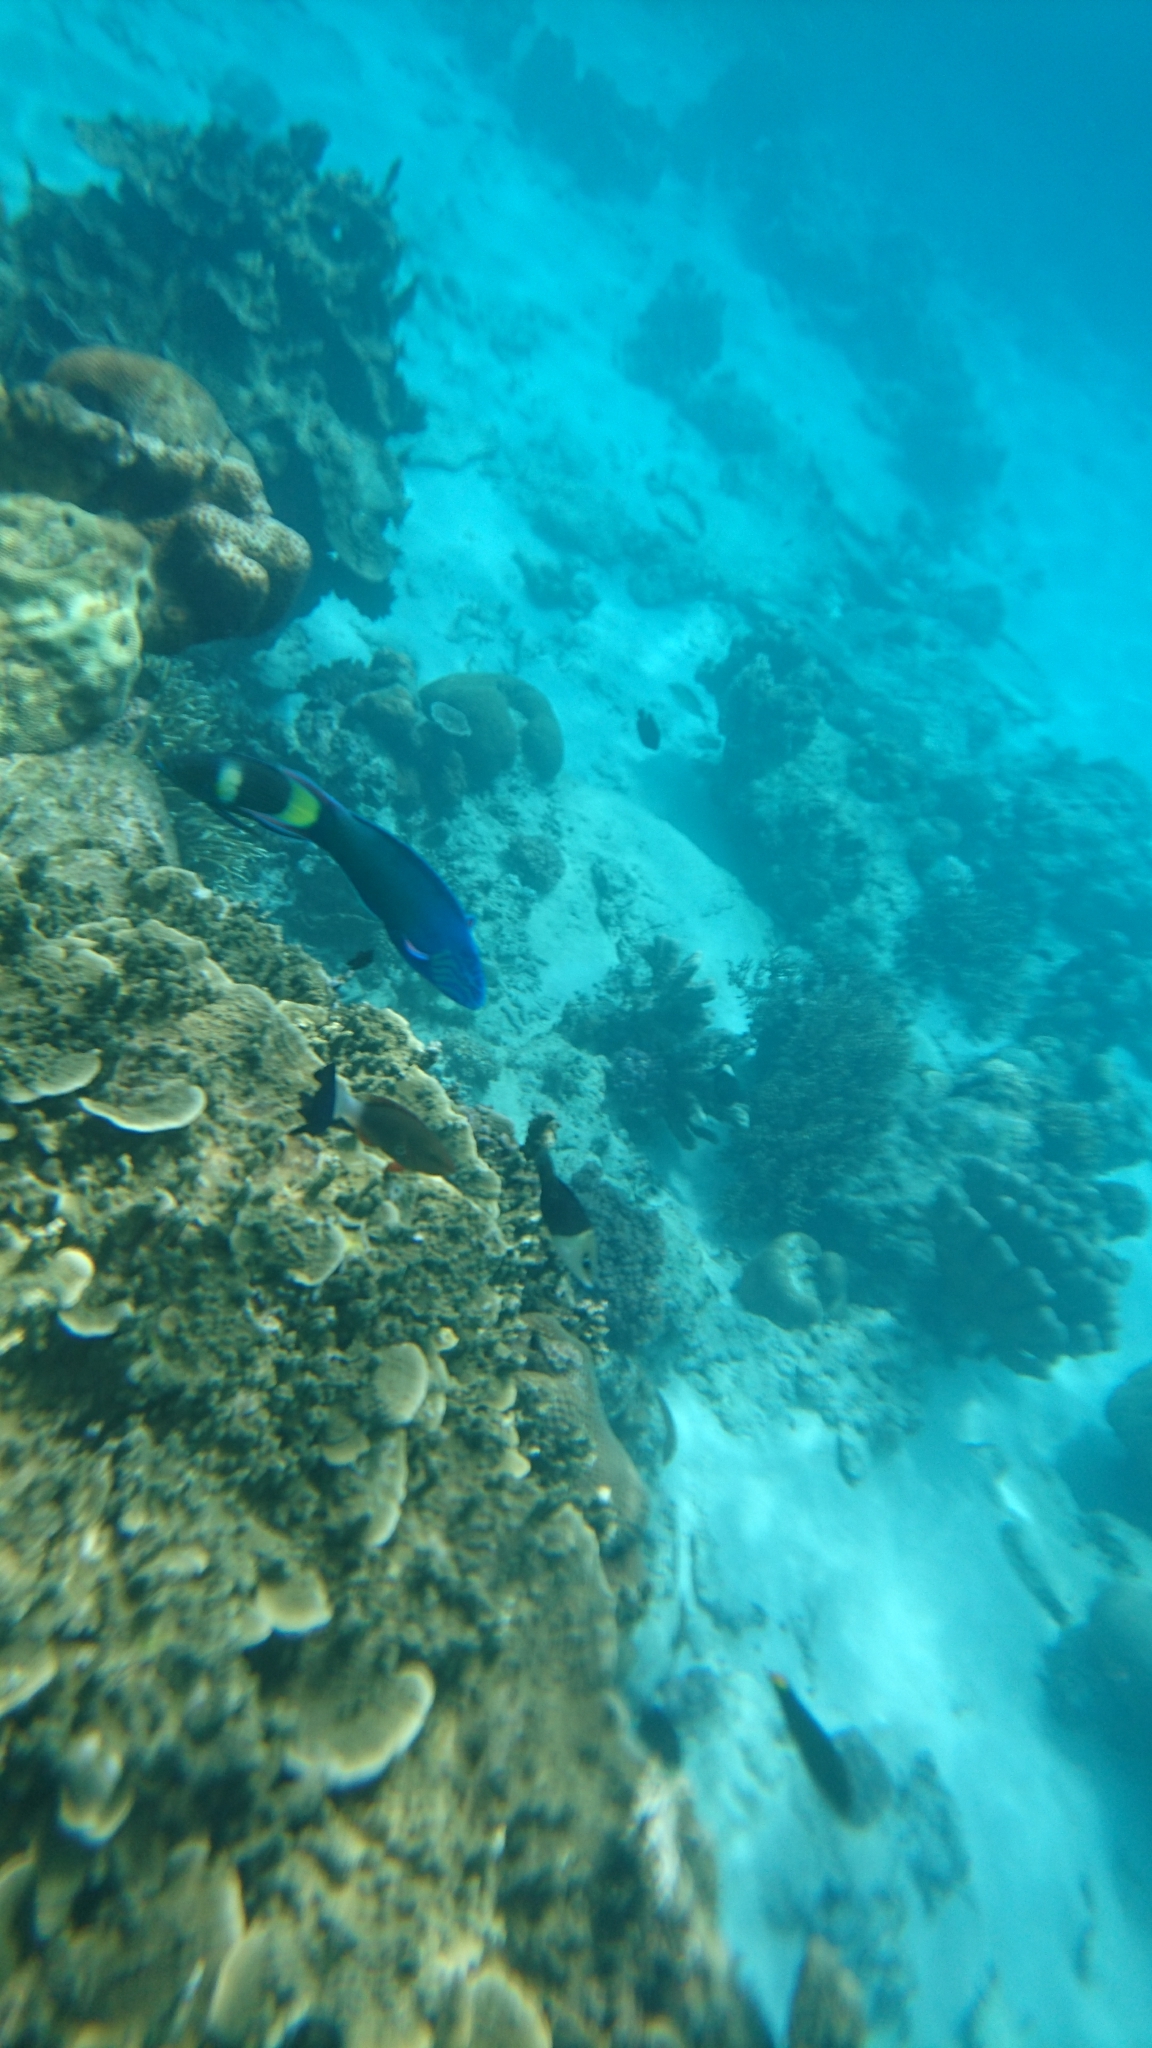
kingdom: Animalia
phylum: Chordata
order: Perciformes
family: Labridae
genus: Thalassoma
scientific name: Thalassoma lunare
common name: Blue wrasse
